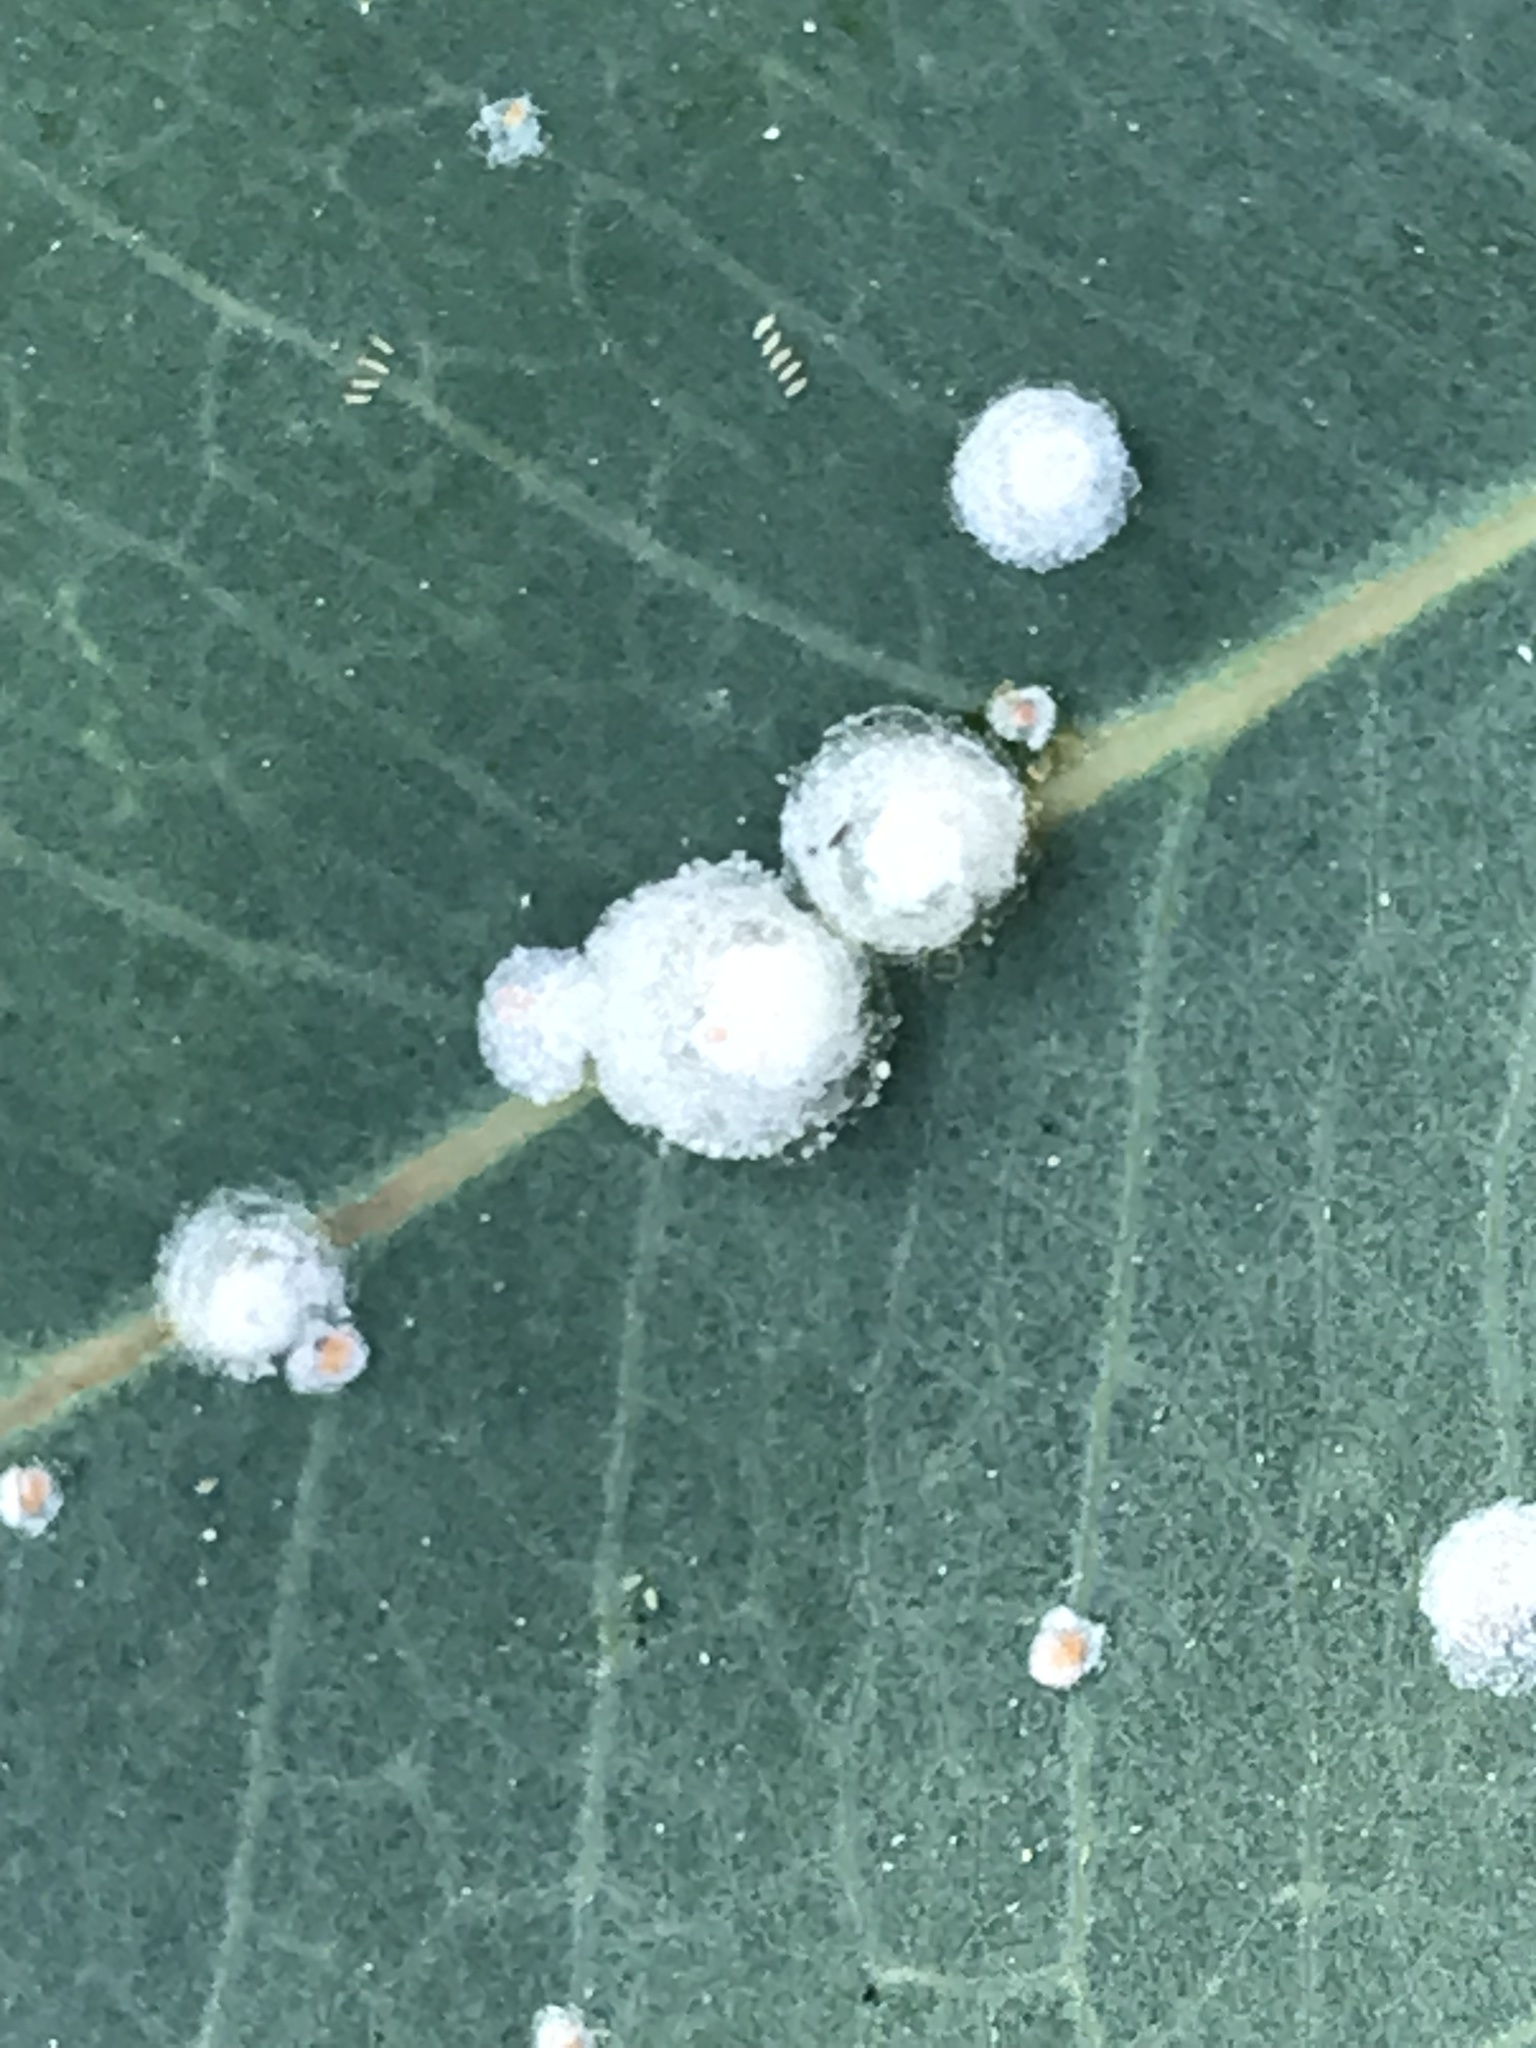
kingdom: Animalia
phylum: Arthropoda
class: Insecta
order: Hemiptera
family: Aphalaridae
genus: Glycaspis
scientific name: Glycaspis brimblecombei
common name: Red gum lerp psyllid
